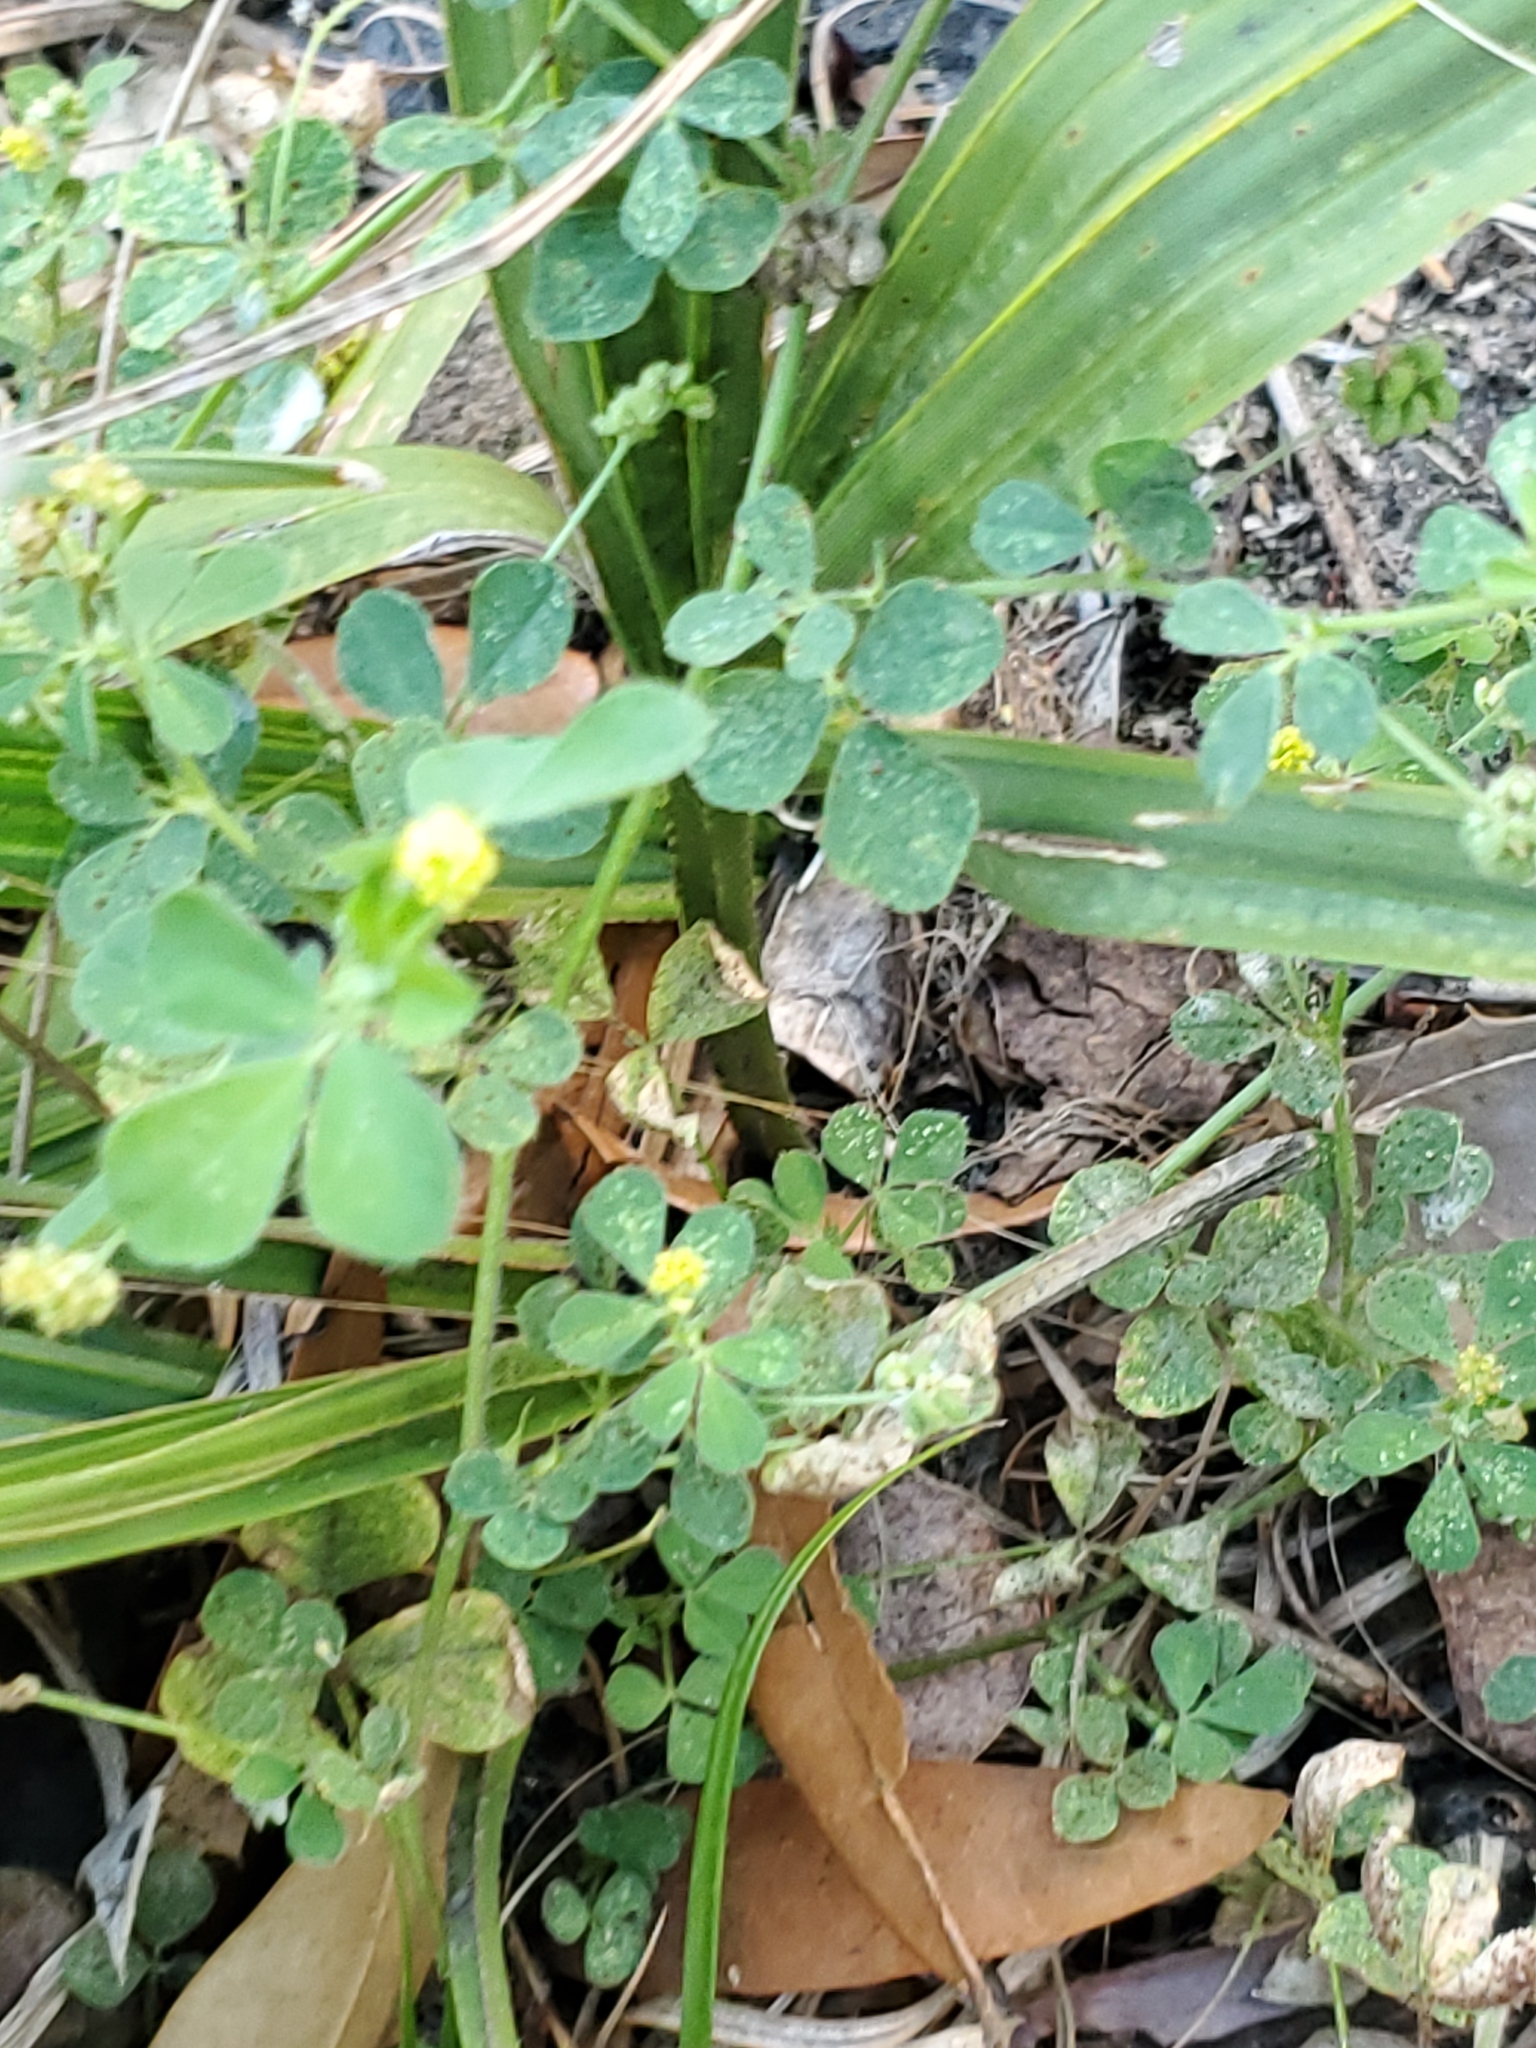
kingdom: Plantae
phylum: Tracheophyta
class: Magnoliopsida
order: Fabales
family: Fabaceae
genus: Medicago
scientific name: Medicago lupulina
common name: Black medick
